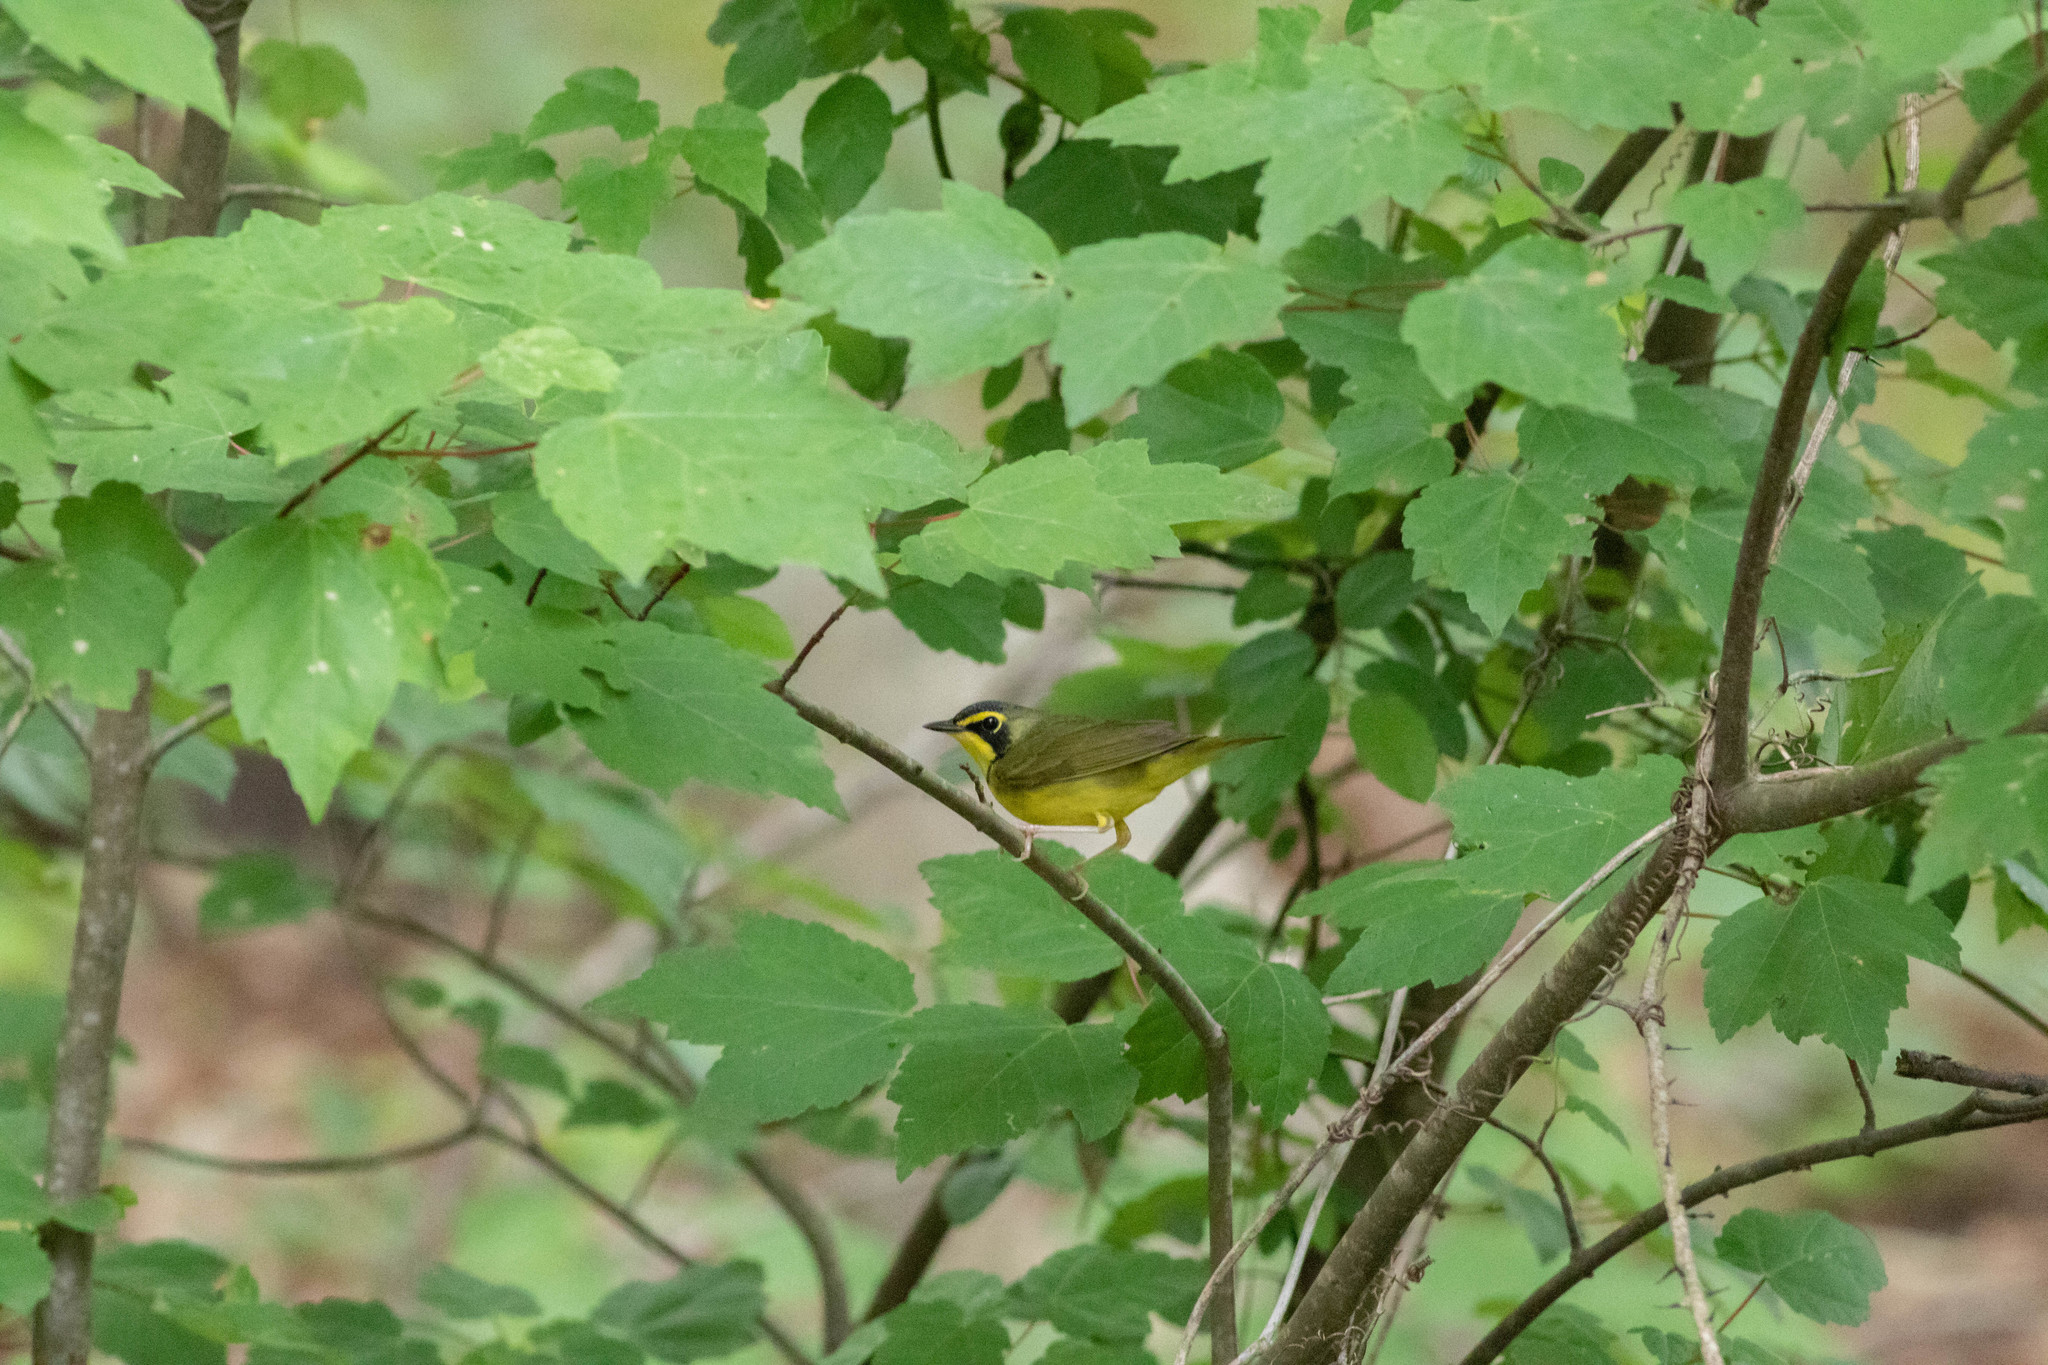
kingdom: Animalia
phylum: Chordata
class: Aves
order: Passeriformes
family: Parulidae
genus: Geothlypis
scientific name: Geothlypis formosa
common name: Kentucky warbler
